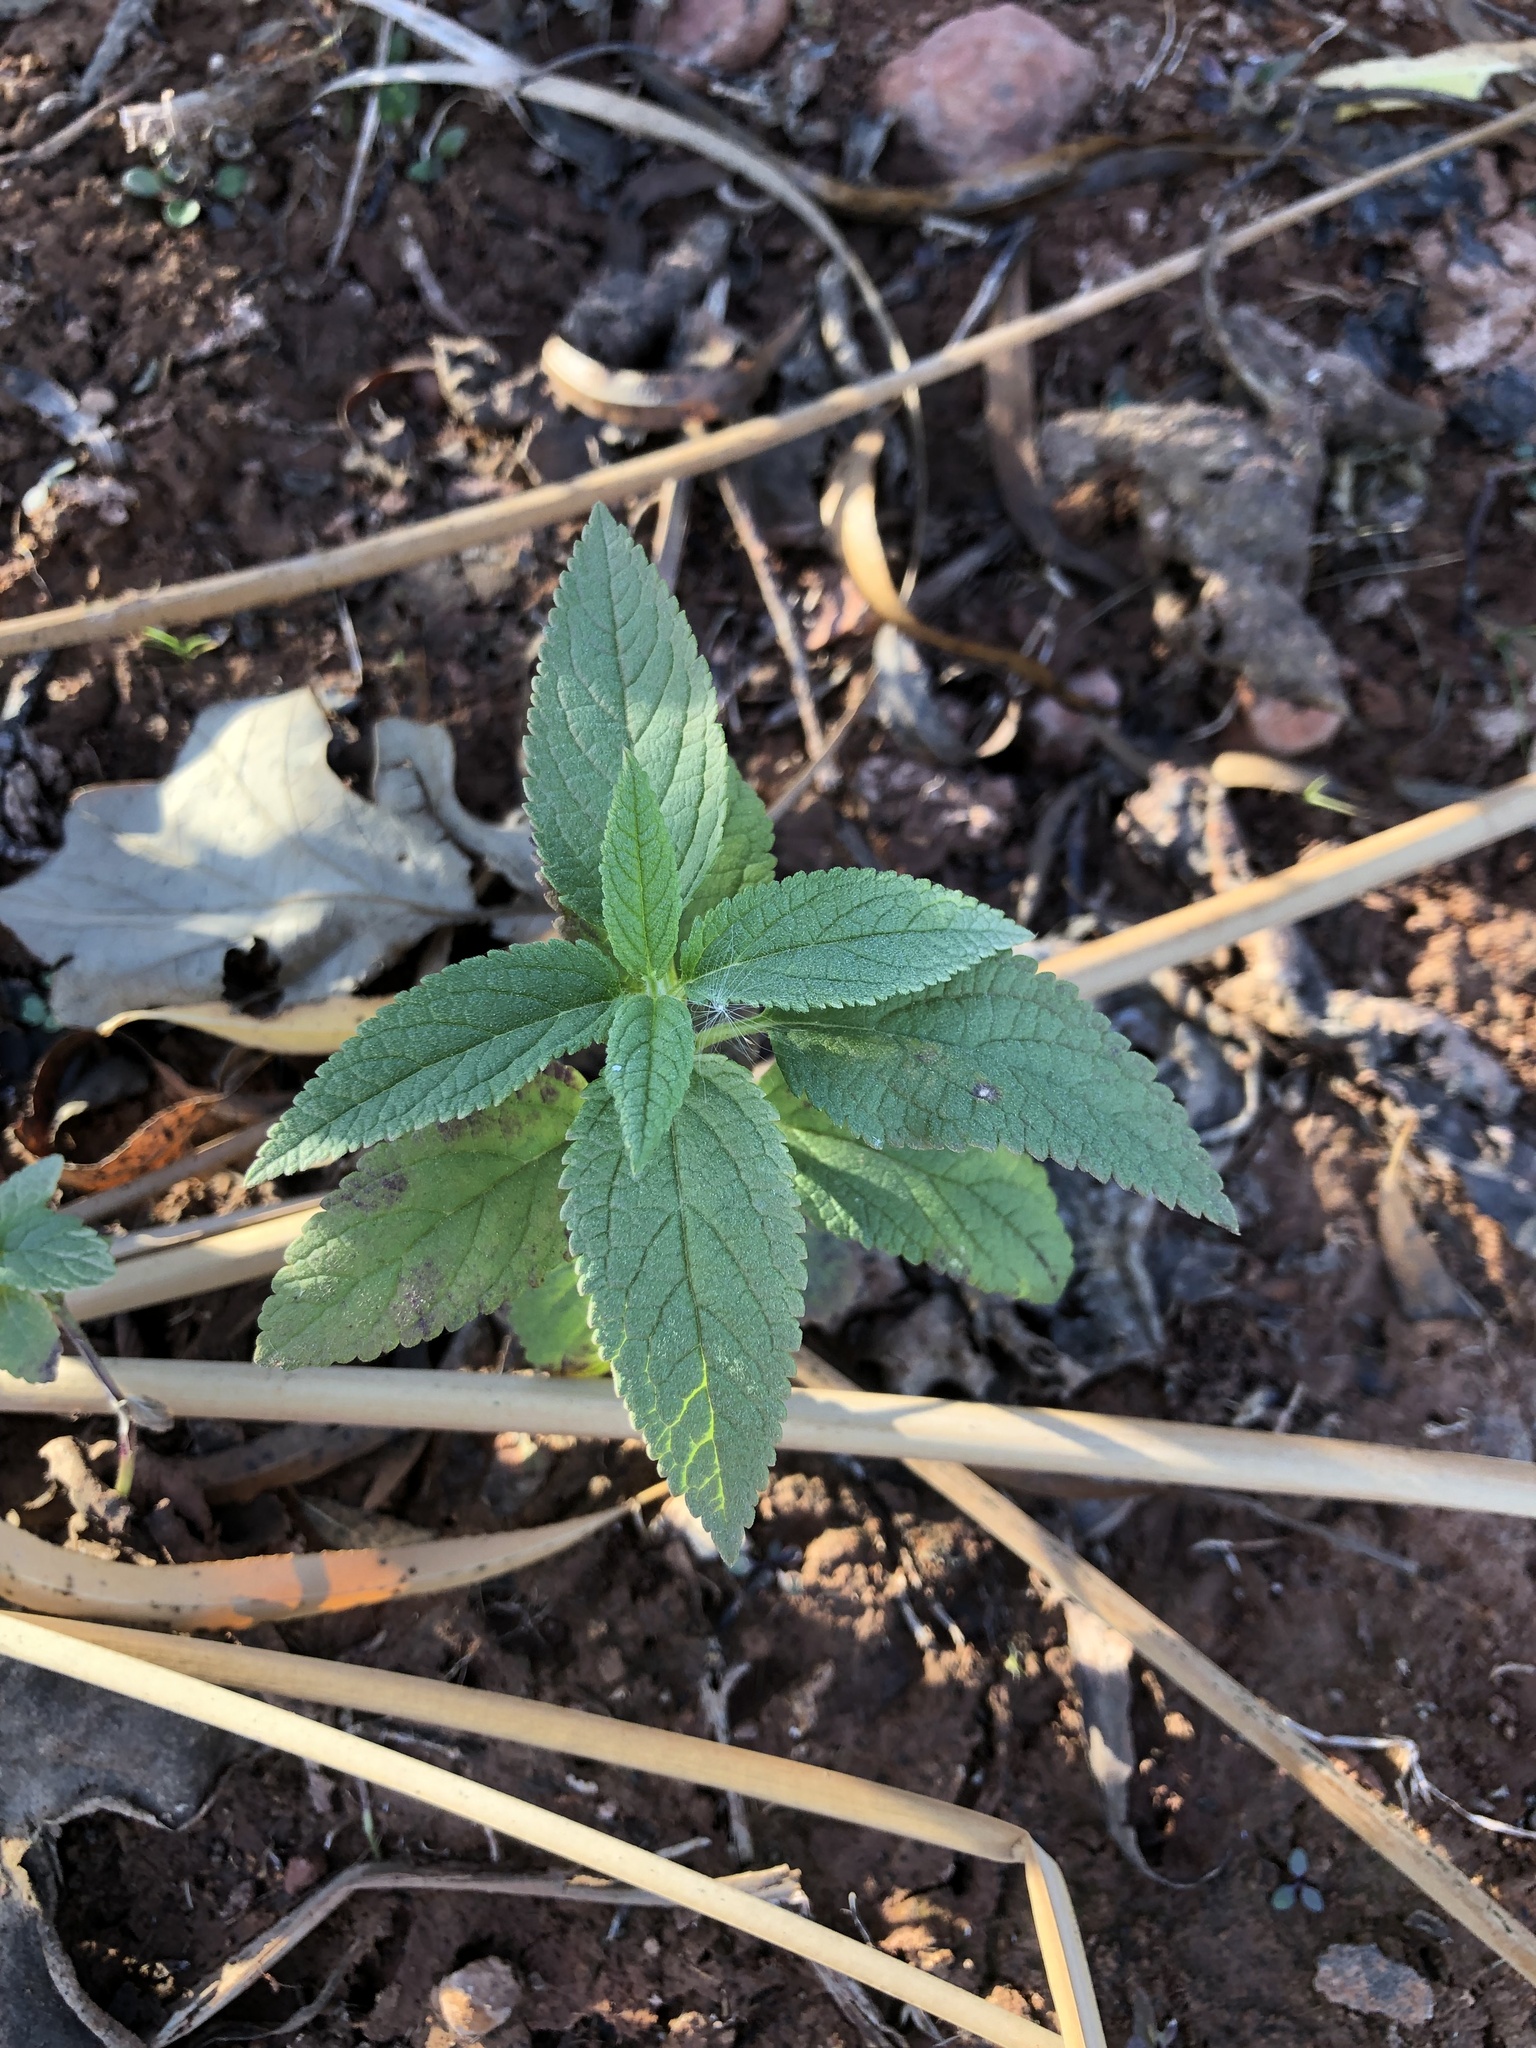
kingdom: Plantae
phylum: Tracheophyta
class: Magnoliopsida
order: Lamiales
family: Lamiaceae
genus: Teucrium
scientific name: Teucrium canadense
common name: American germander
